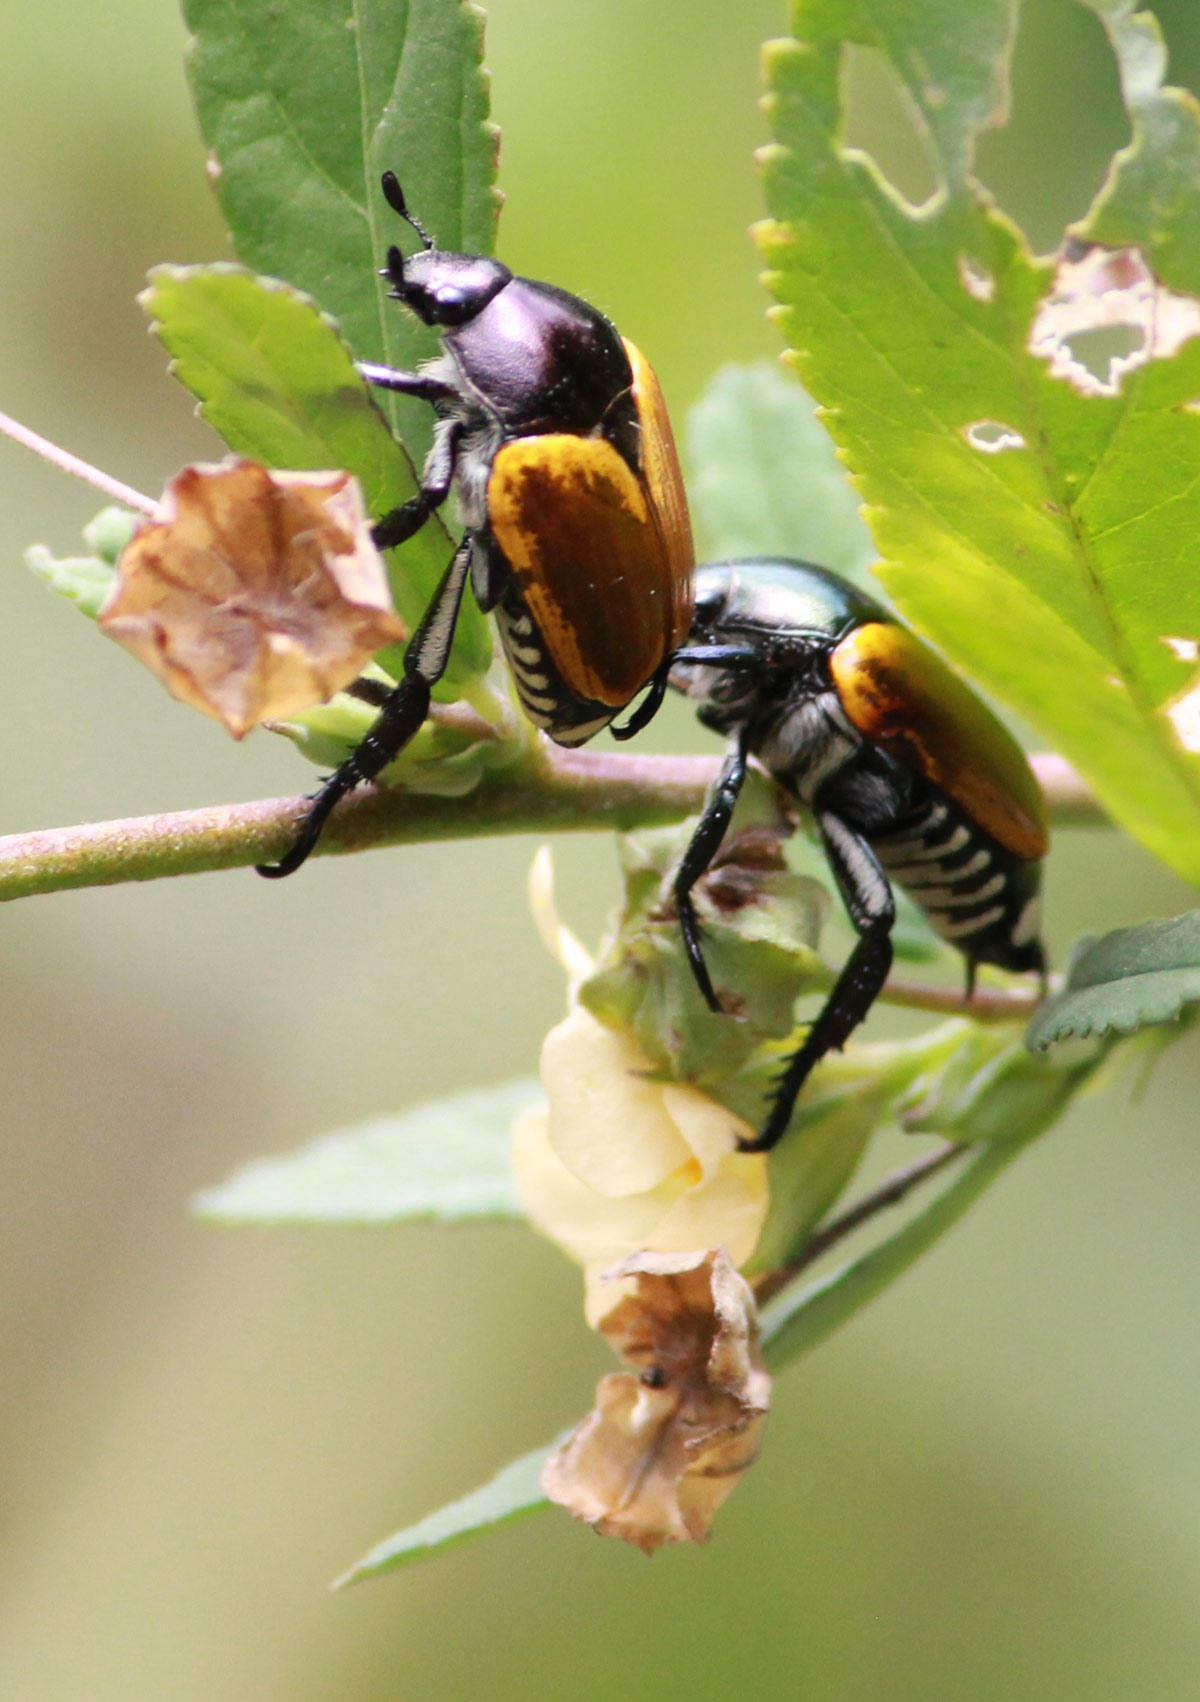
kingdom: Animalia
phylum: Arthropoda
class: Insecta
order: Coleoptera
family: Scarabaeidae
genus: Popillia
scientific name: Popillia bipunctata
